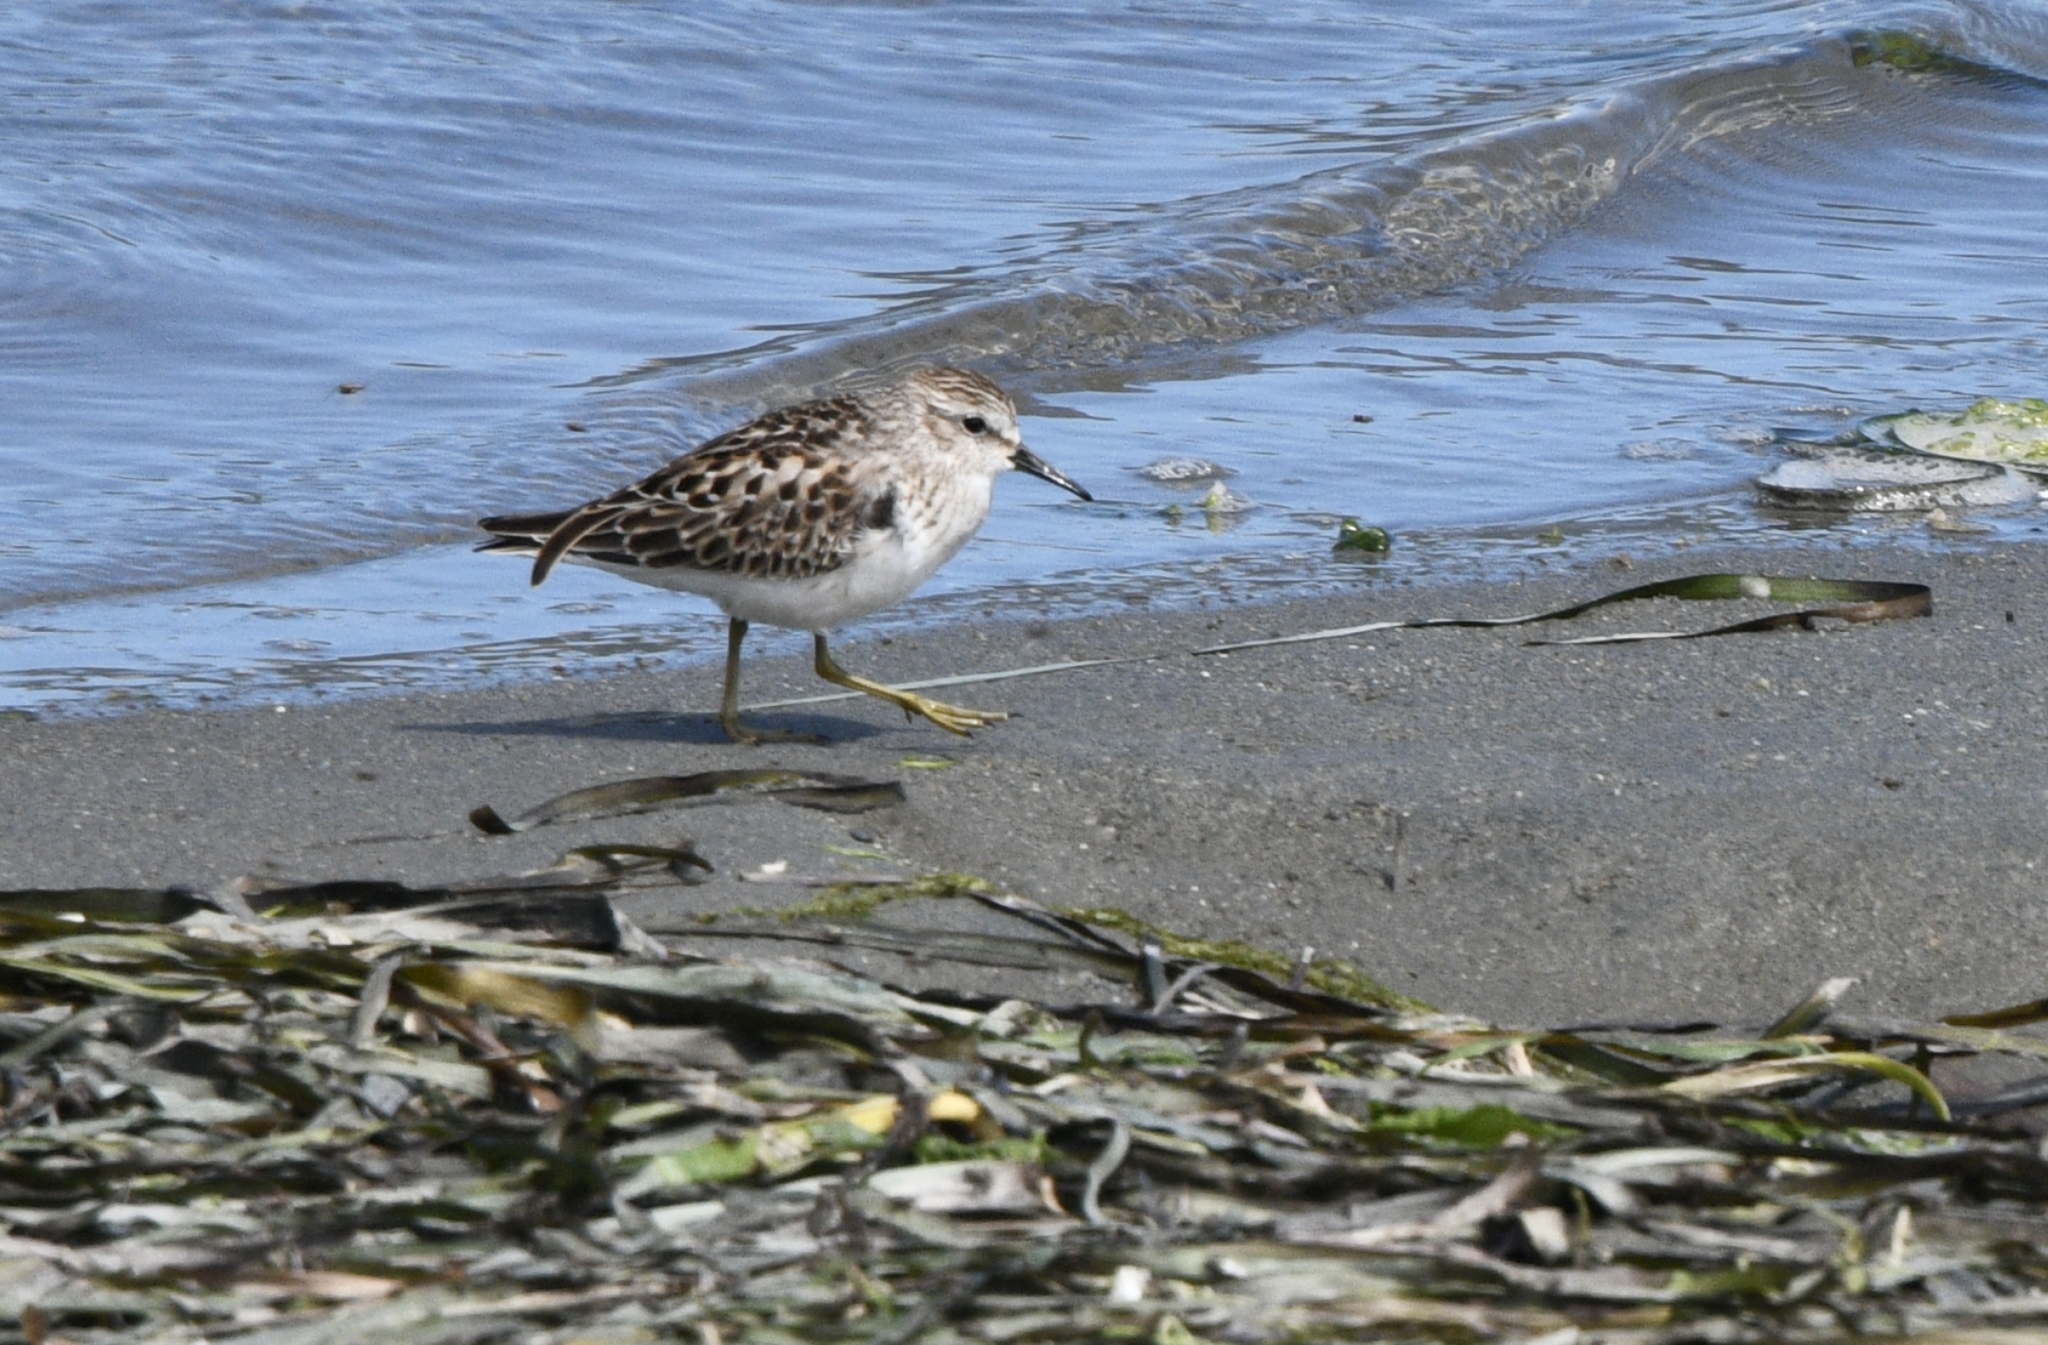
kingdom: Animalia
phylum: Chordata
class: Aves
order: Charadriiformes
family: Scolopacidae
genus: Calidris
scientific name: Calidris minutilla
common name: Least sandpiper
